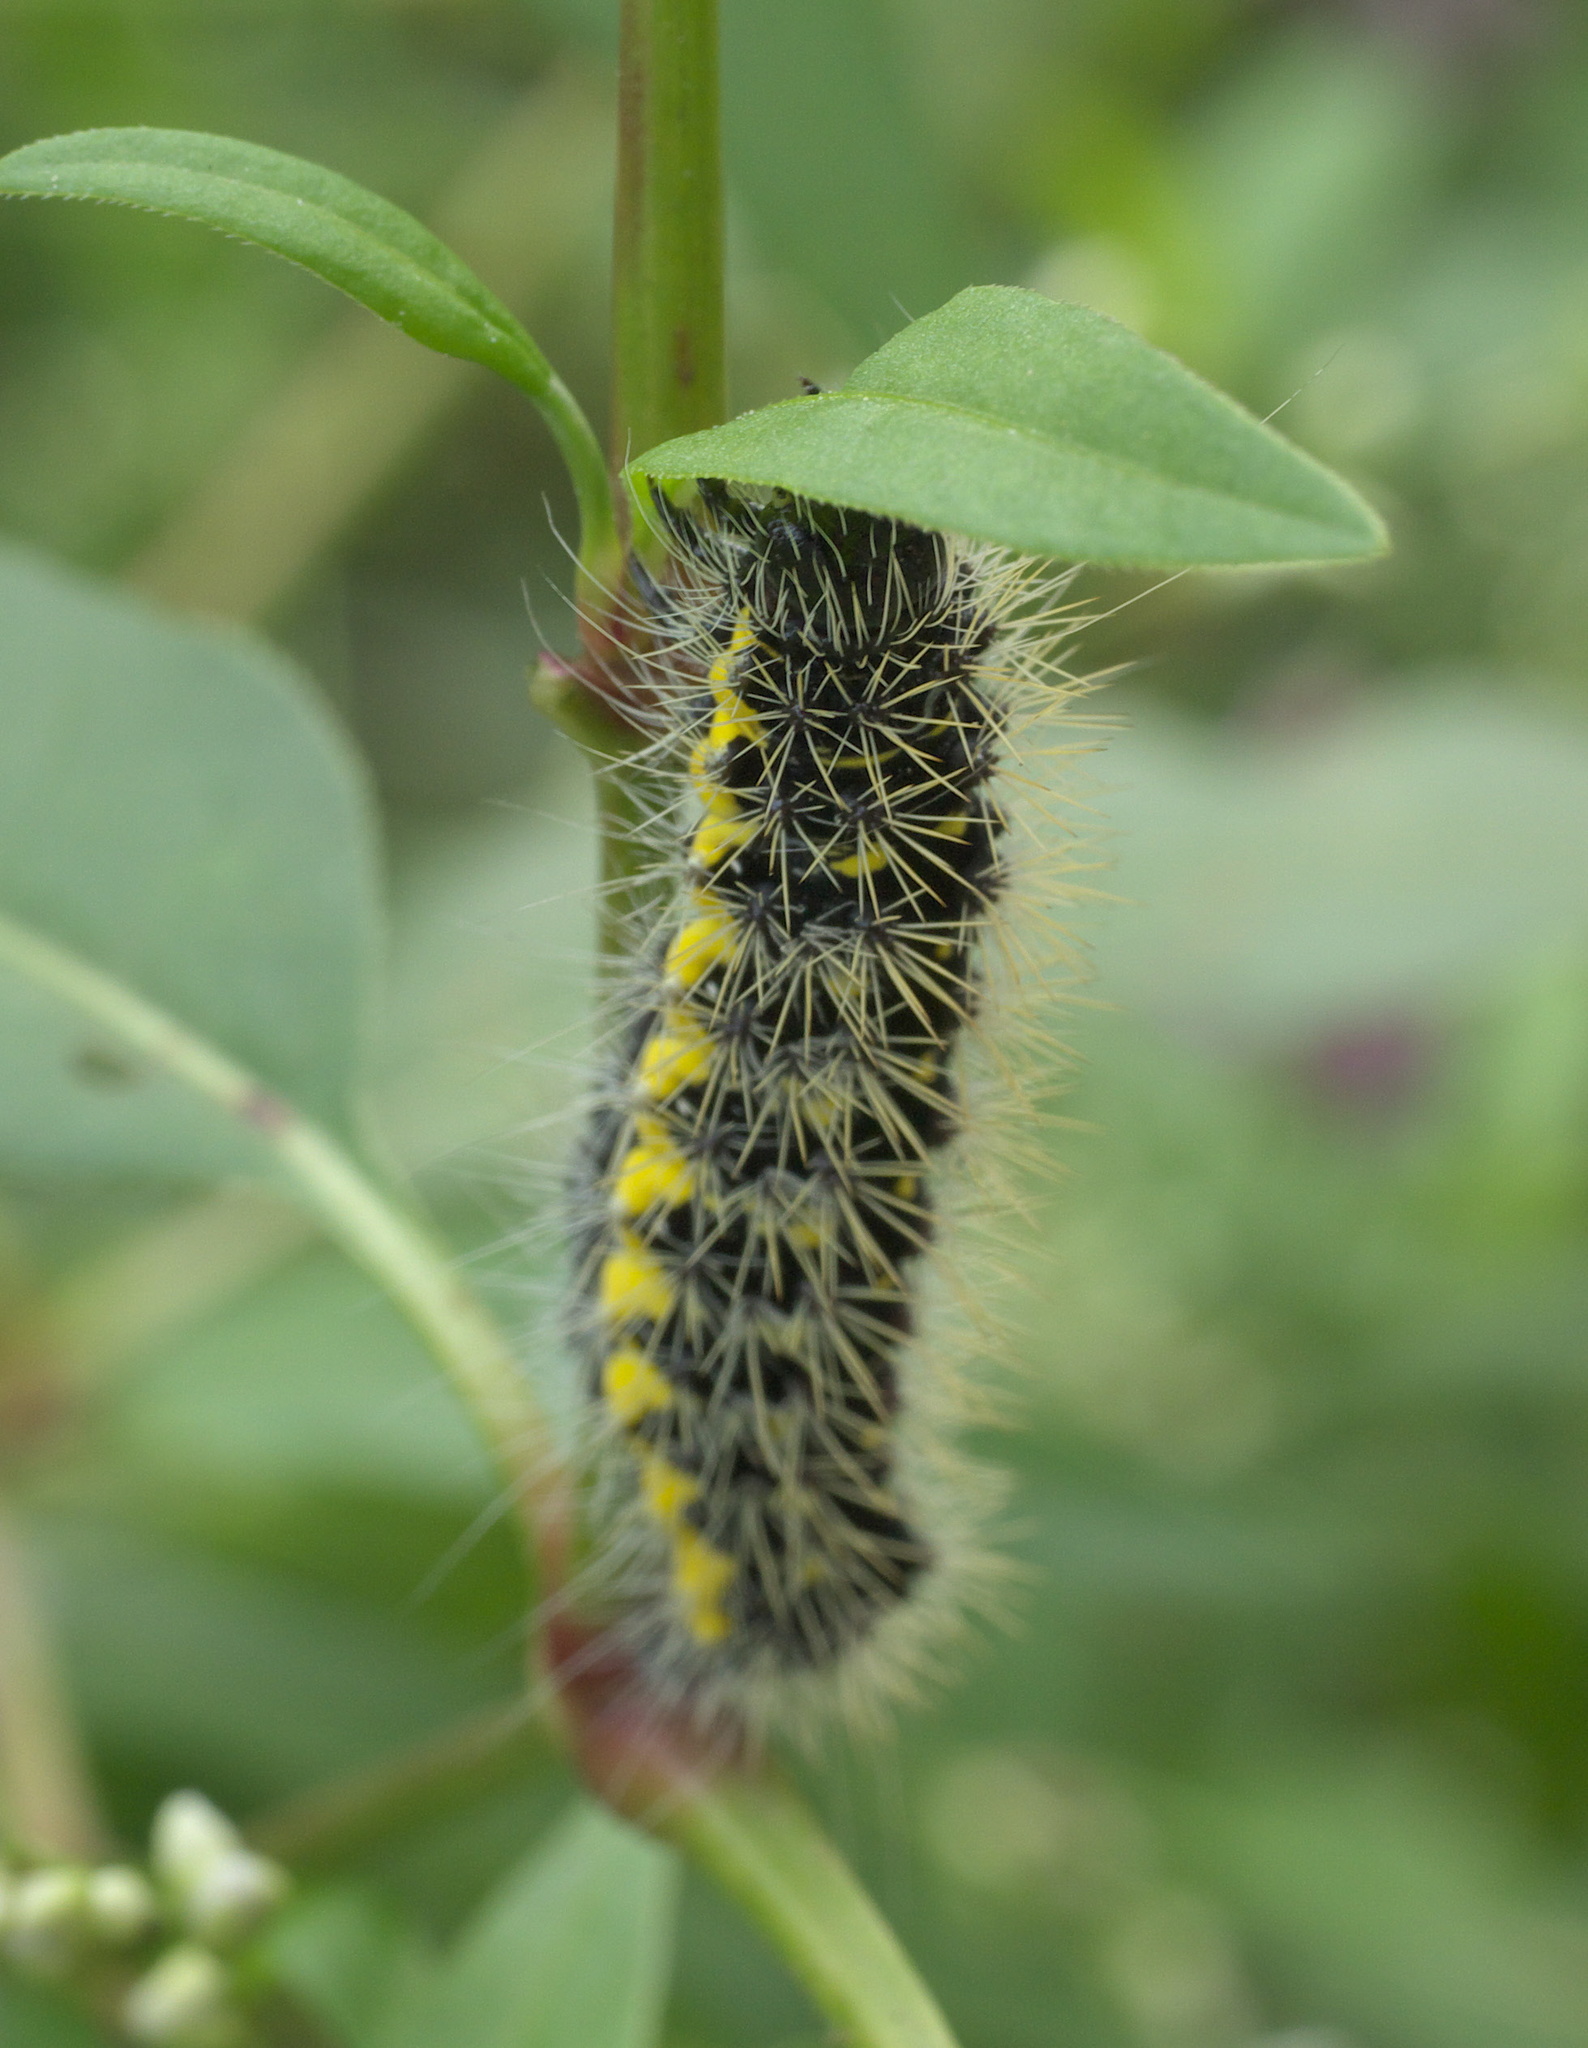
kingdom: Animalia
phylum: Arthropoda
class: Insecta
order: Lepidoptera
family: Noctuidae
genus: Acronicta
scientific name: Acronicta oblinita
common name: Smeared dagger
